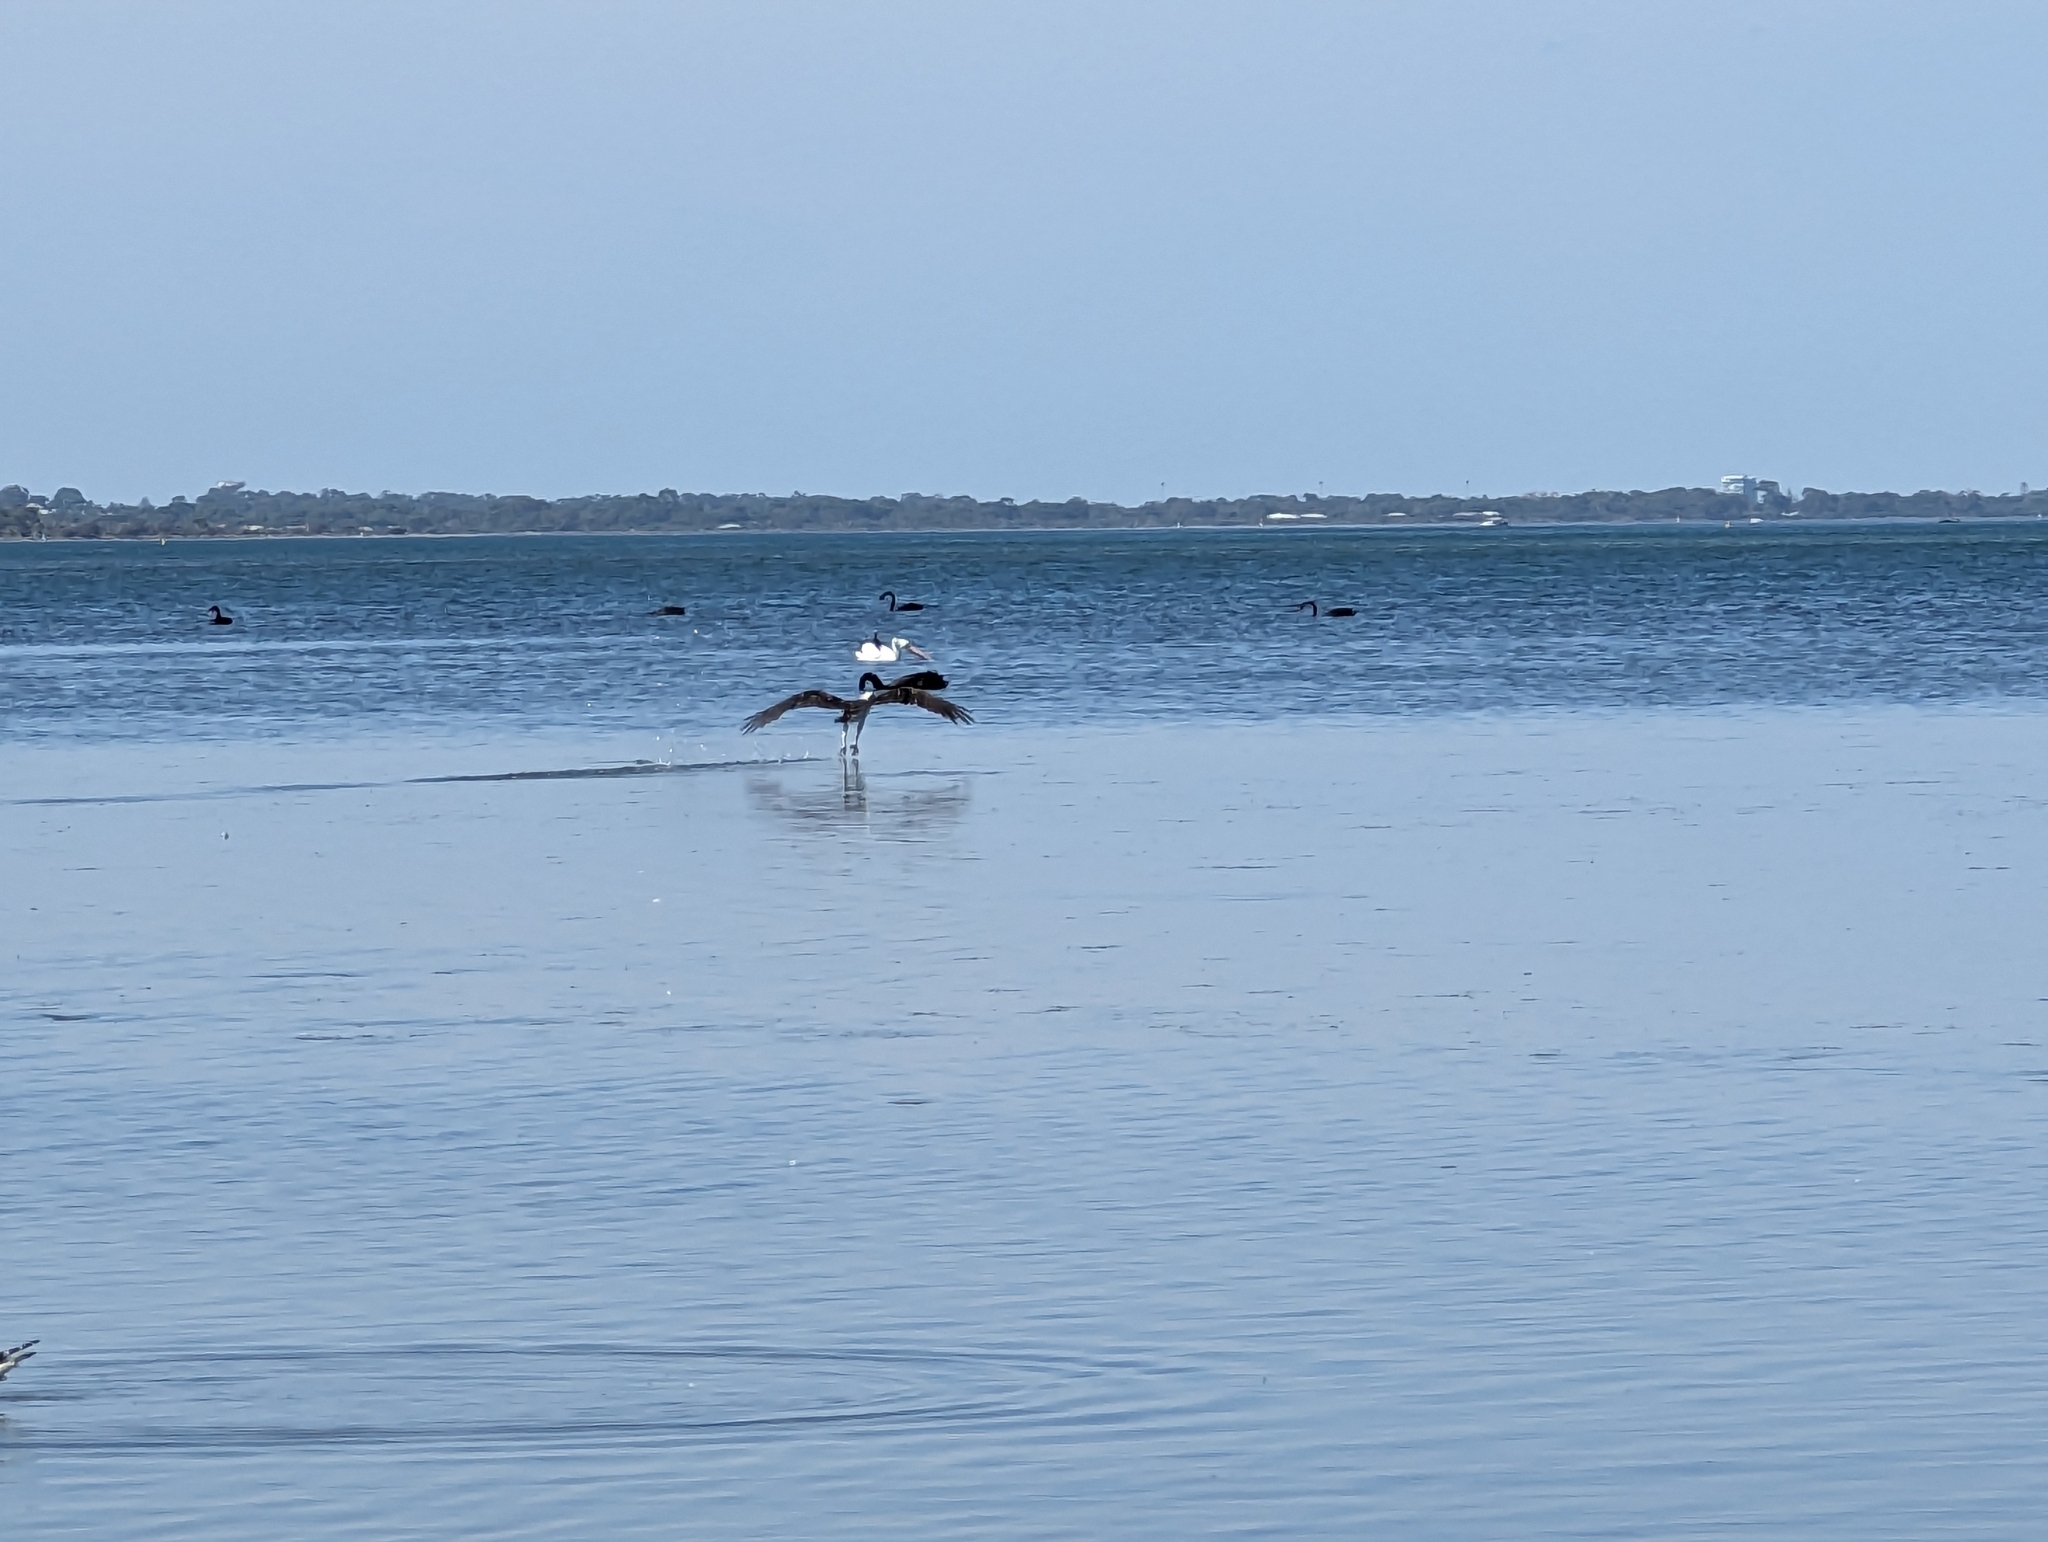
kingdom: Animalia
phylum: Chordata
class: Aves
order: Accipitriformes
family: Pandionidae
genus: Pandion
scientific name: Pandion haliaetus
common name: Osprey
